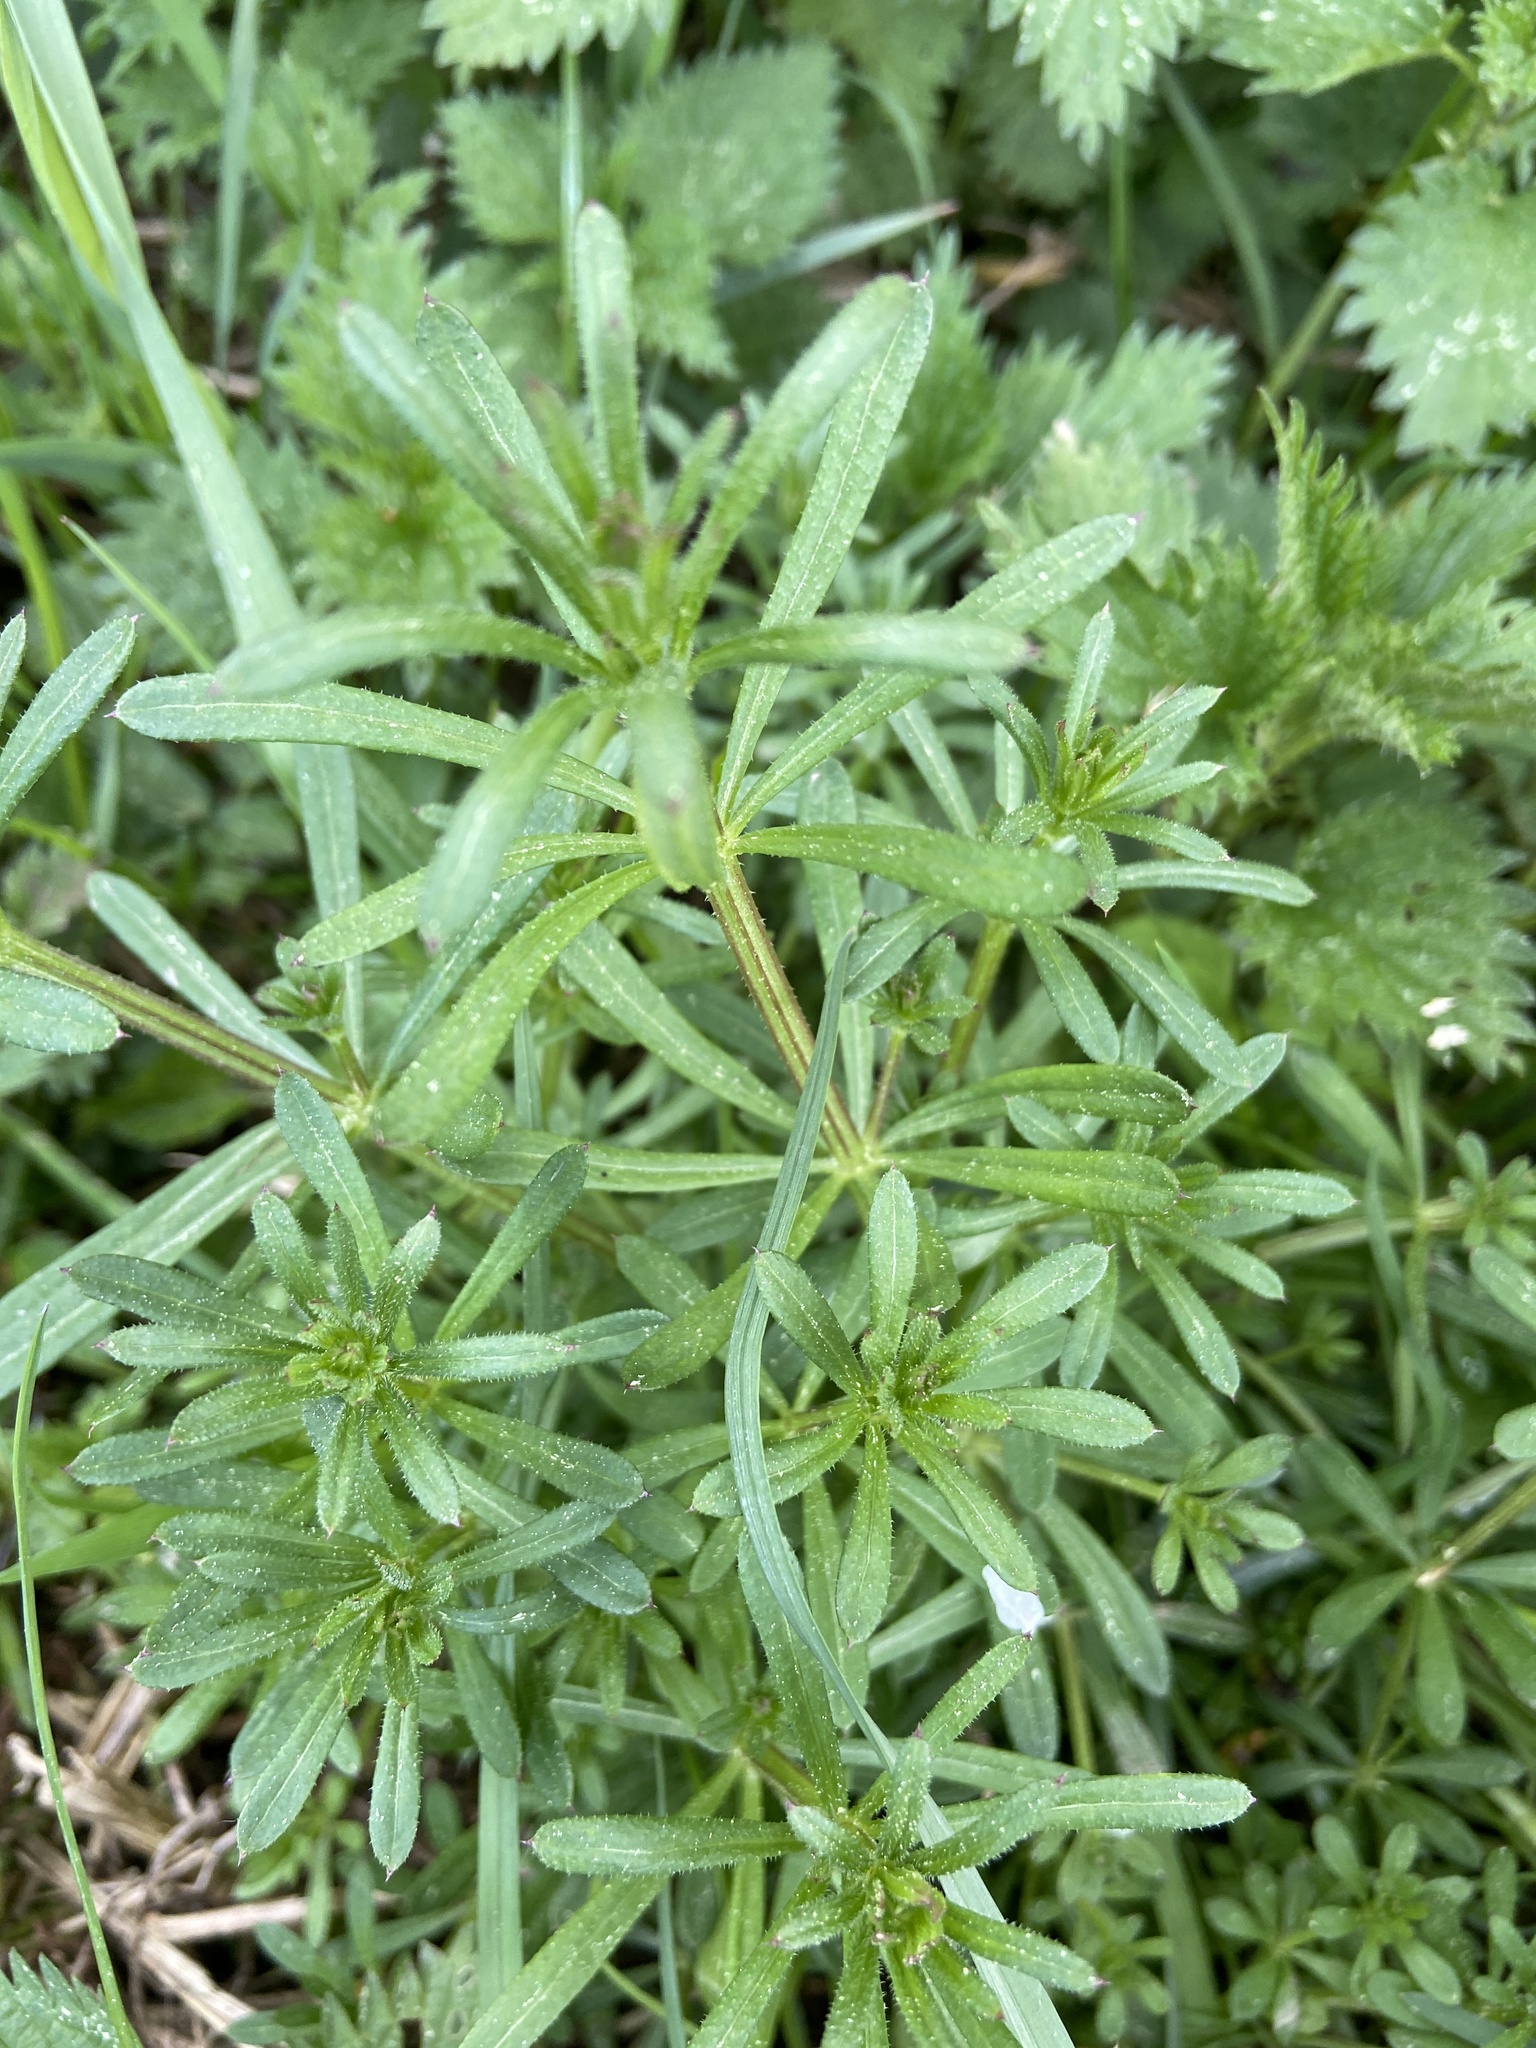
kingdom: Plantae
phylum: Tracheophyta
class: Magnoliopsida
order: Gentianales
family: Rubiaceae
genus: Galium
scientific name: Galium aparine
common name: Cleavers
